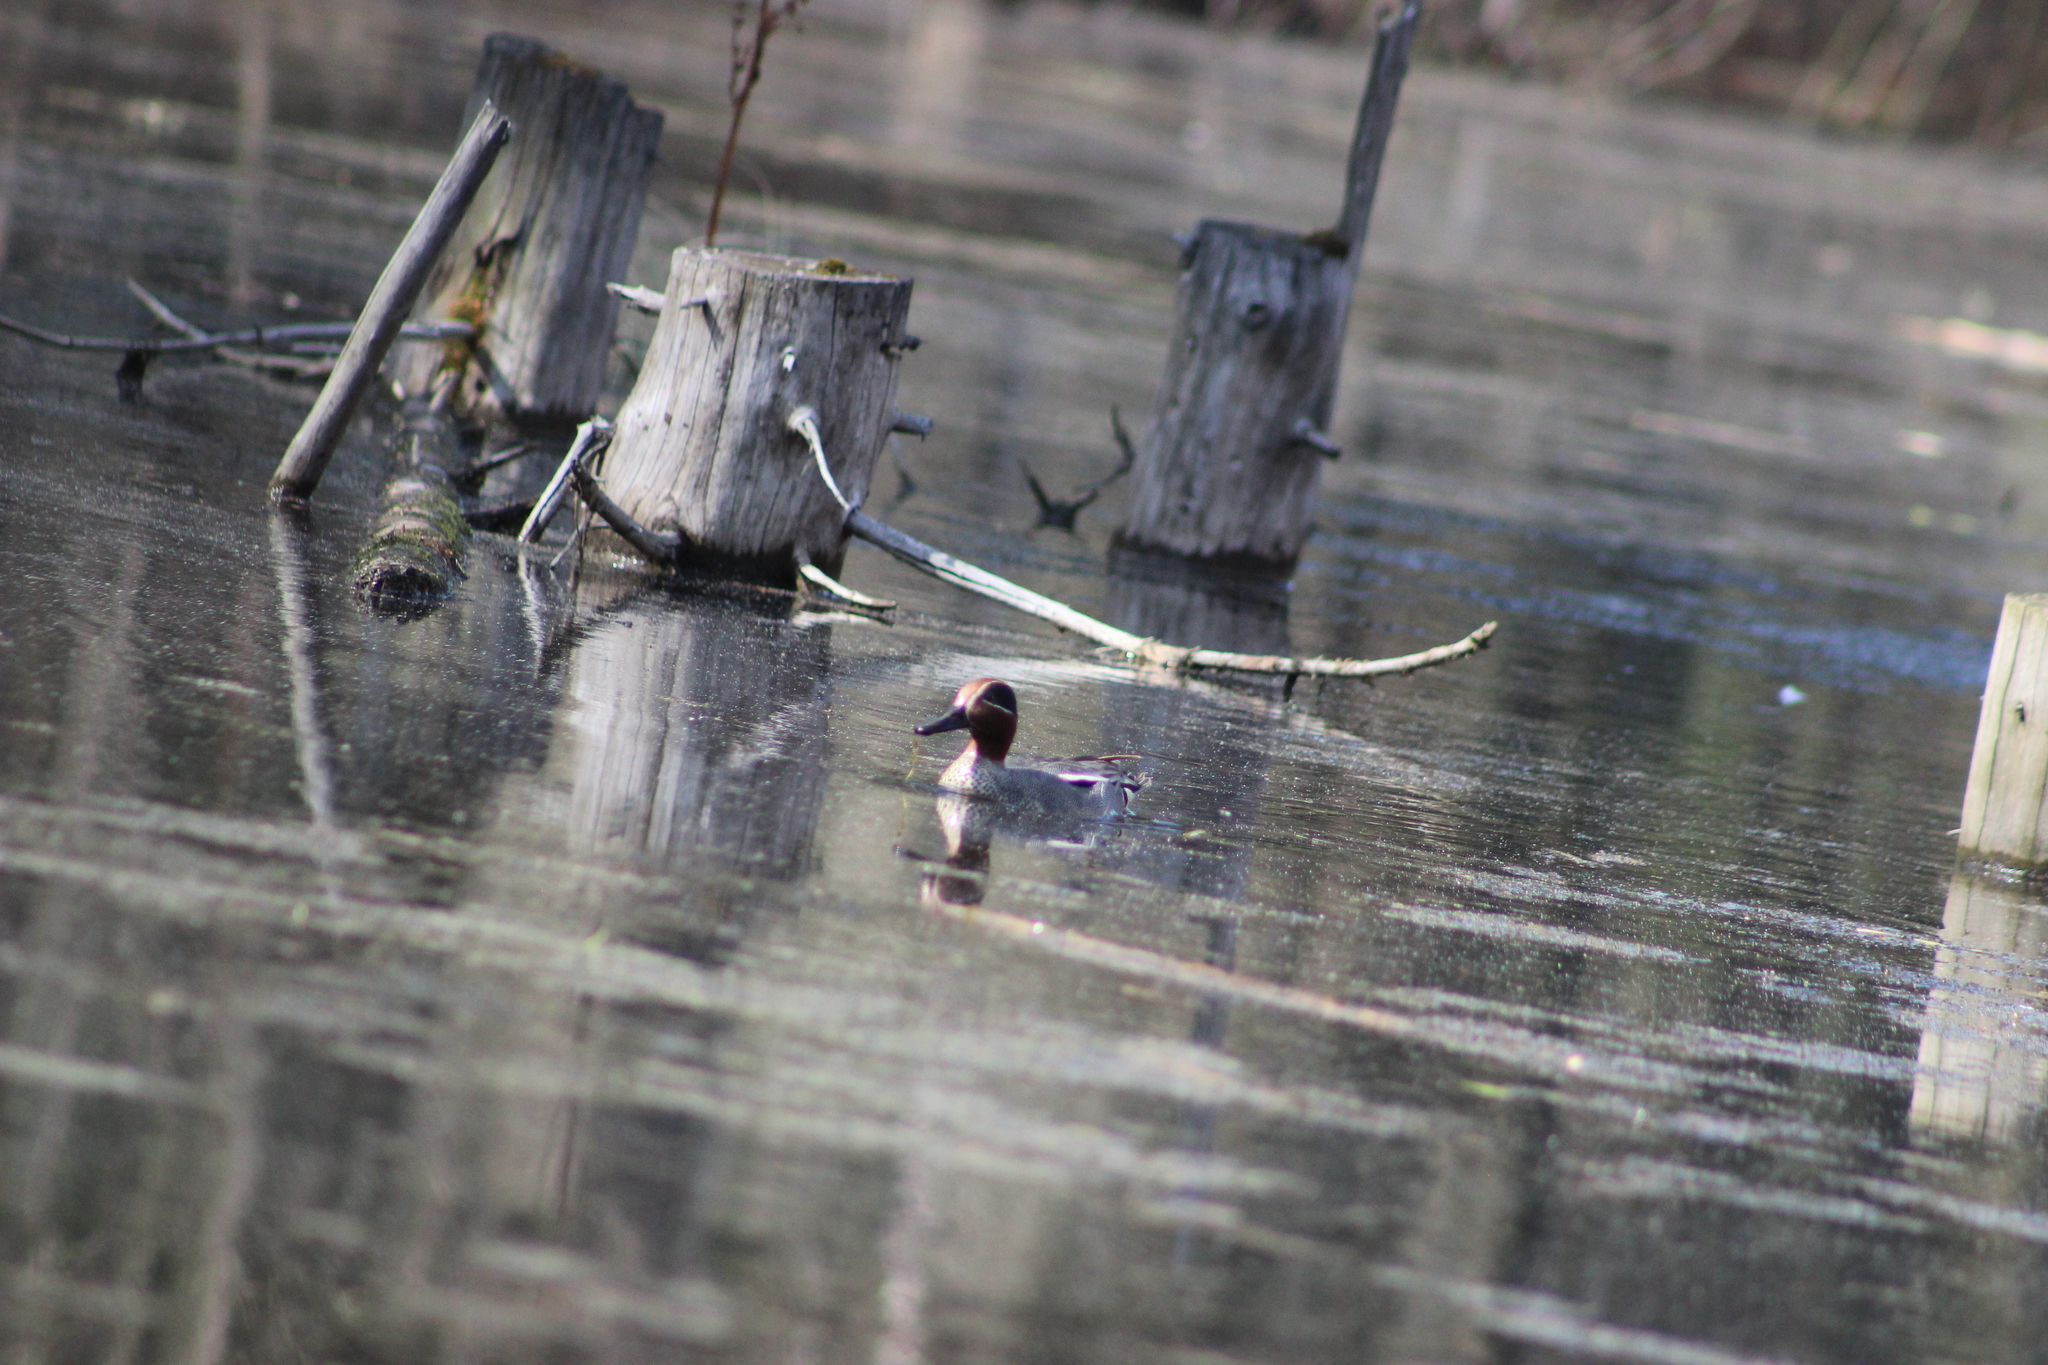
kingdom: Animalia
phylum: Chordata
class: Aves
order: Anseriformes
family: Anatidae
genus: Anas
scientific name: Anas crecca
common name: Eurasian teal
